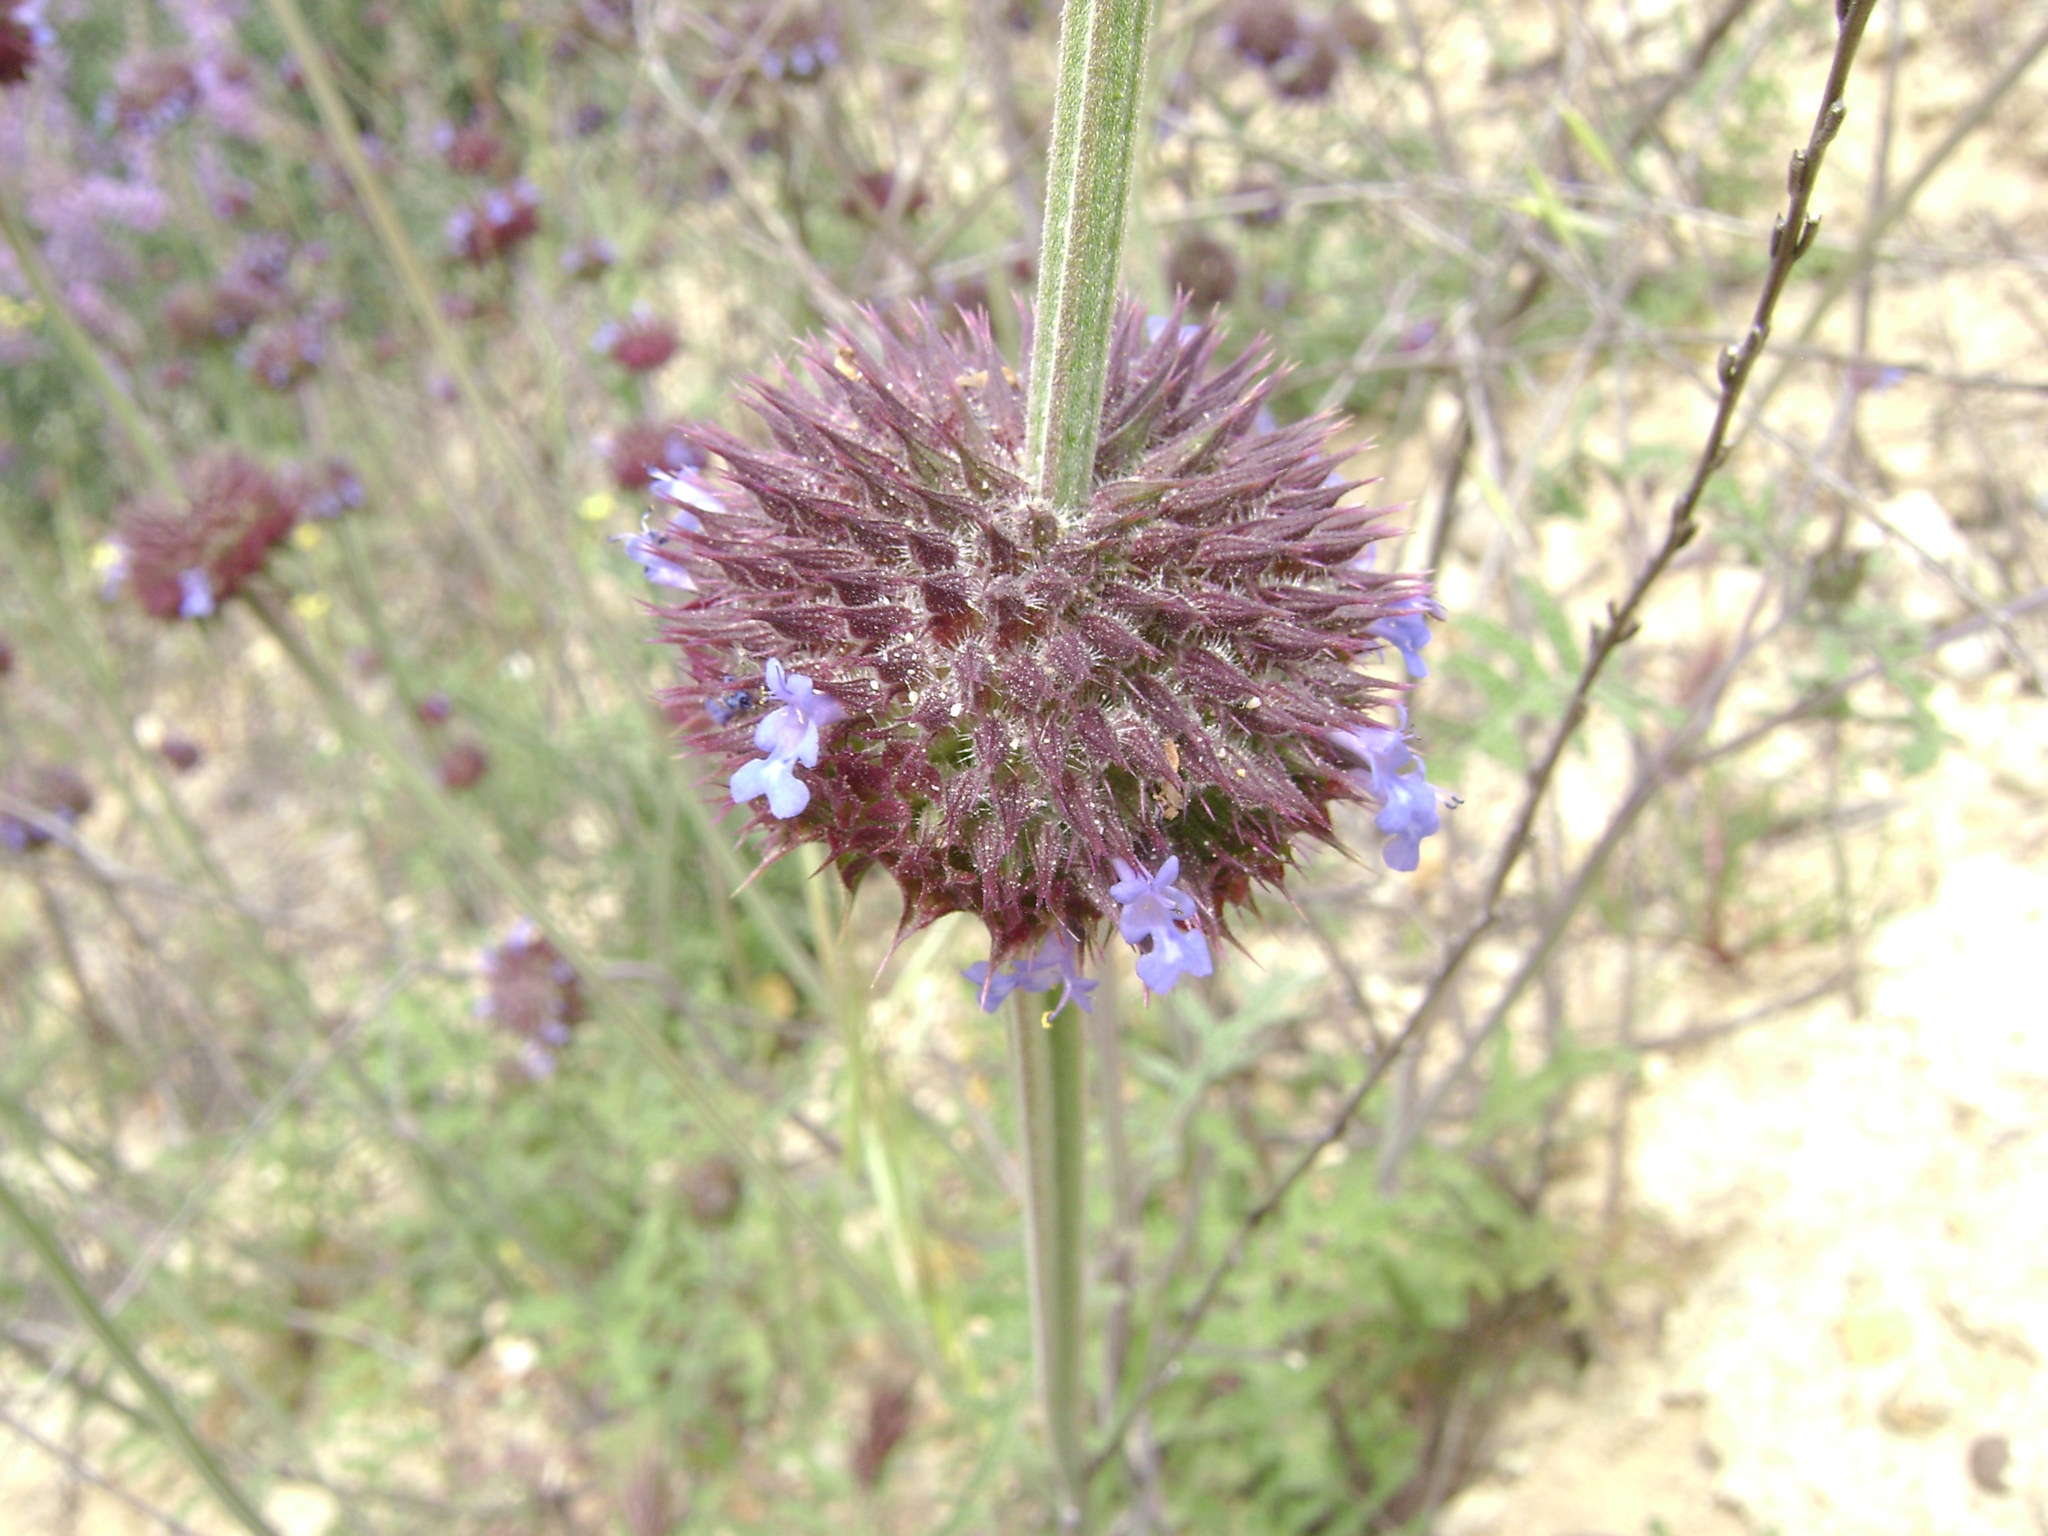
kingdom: Plantae
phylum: Tracheophyta
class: Magnoliopsida
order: Lamiales
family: Lamiaceae
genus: Salvia
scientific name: Salvia columbariae
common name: Chia
